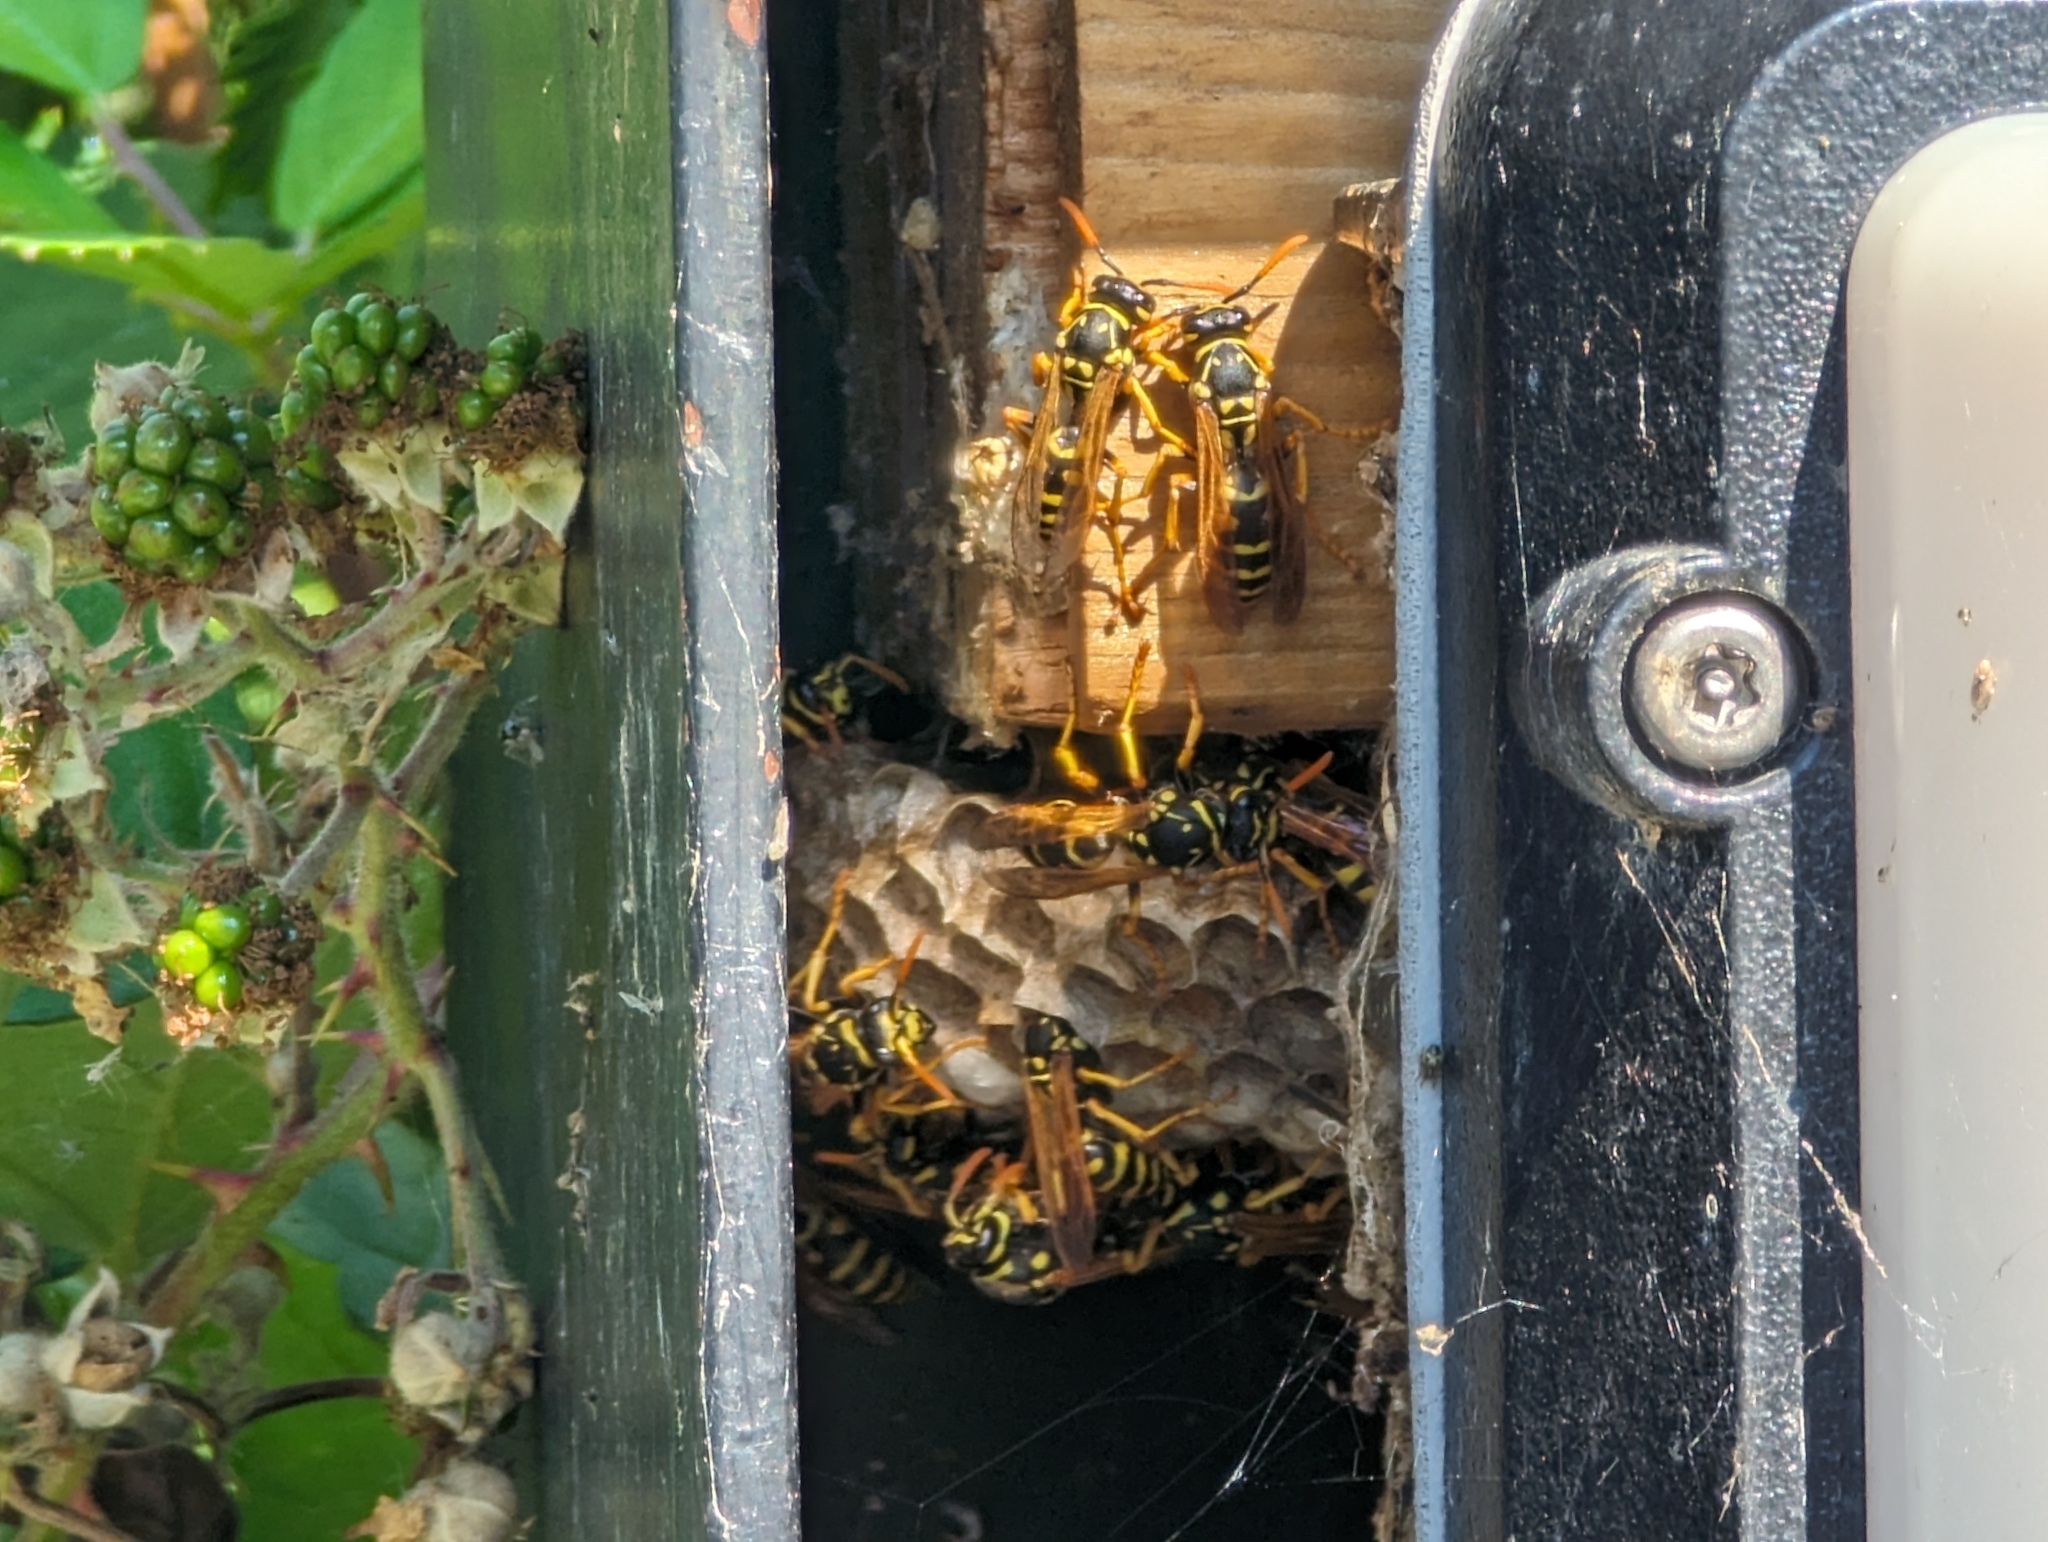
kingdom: Animalia
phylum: Arthropoda
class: Insecta
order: Hymenoptera
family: Eumenidae
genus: Polistes
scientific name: Polistes dominula
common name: Paper wasp
